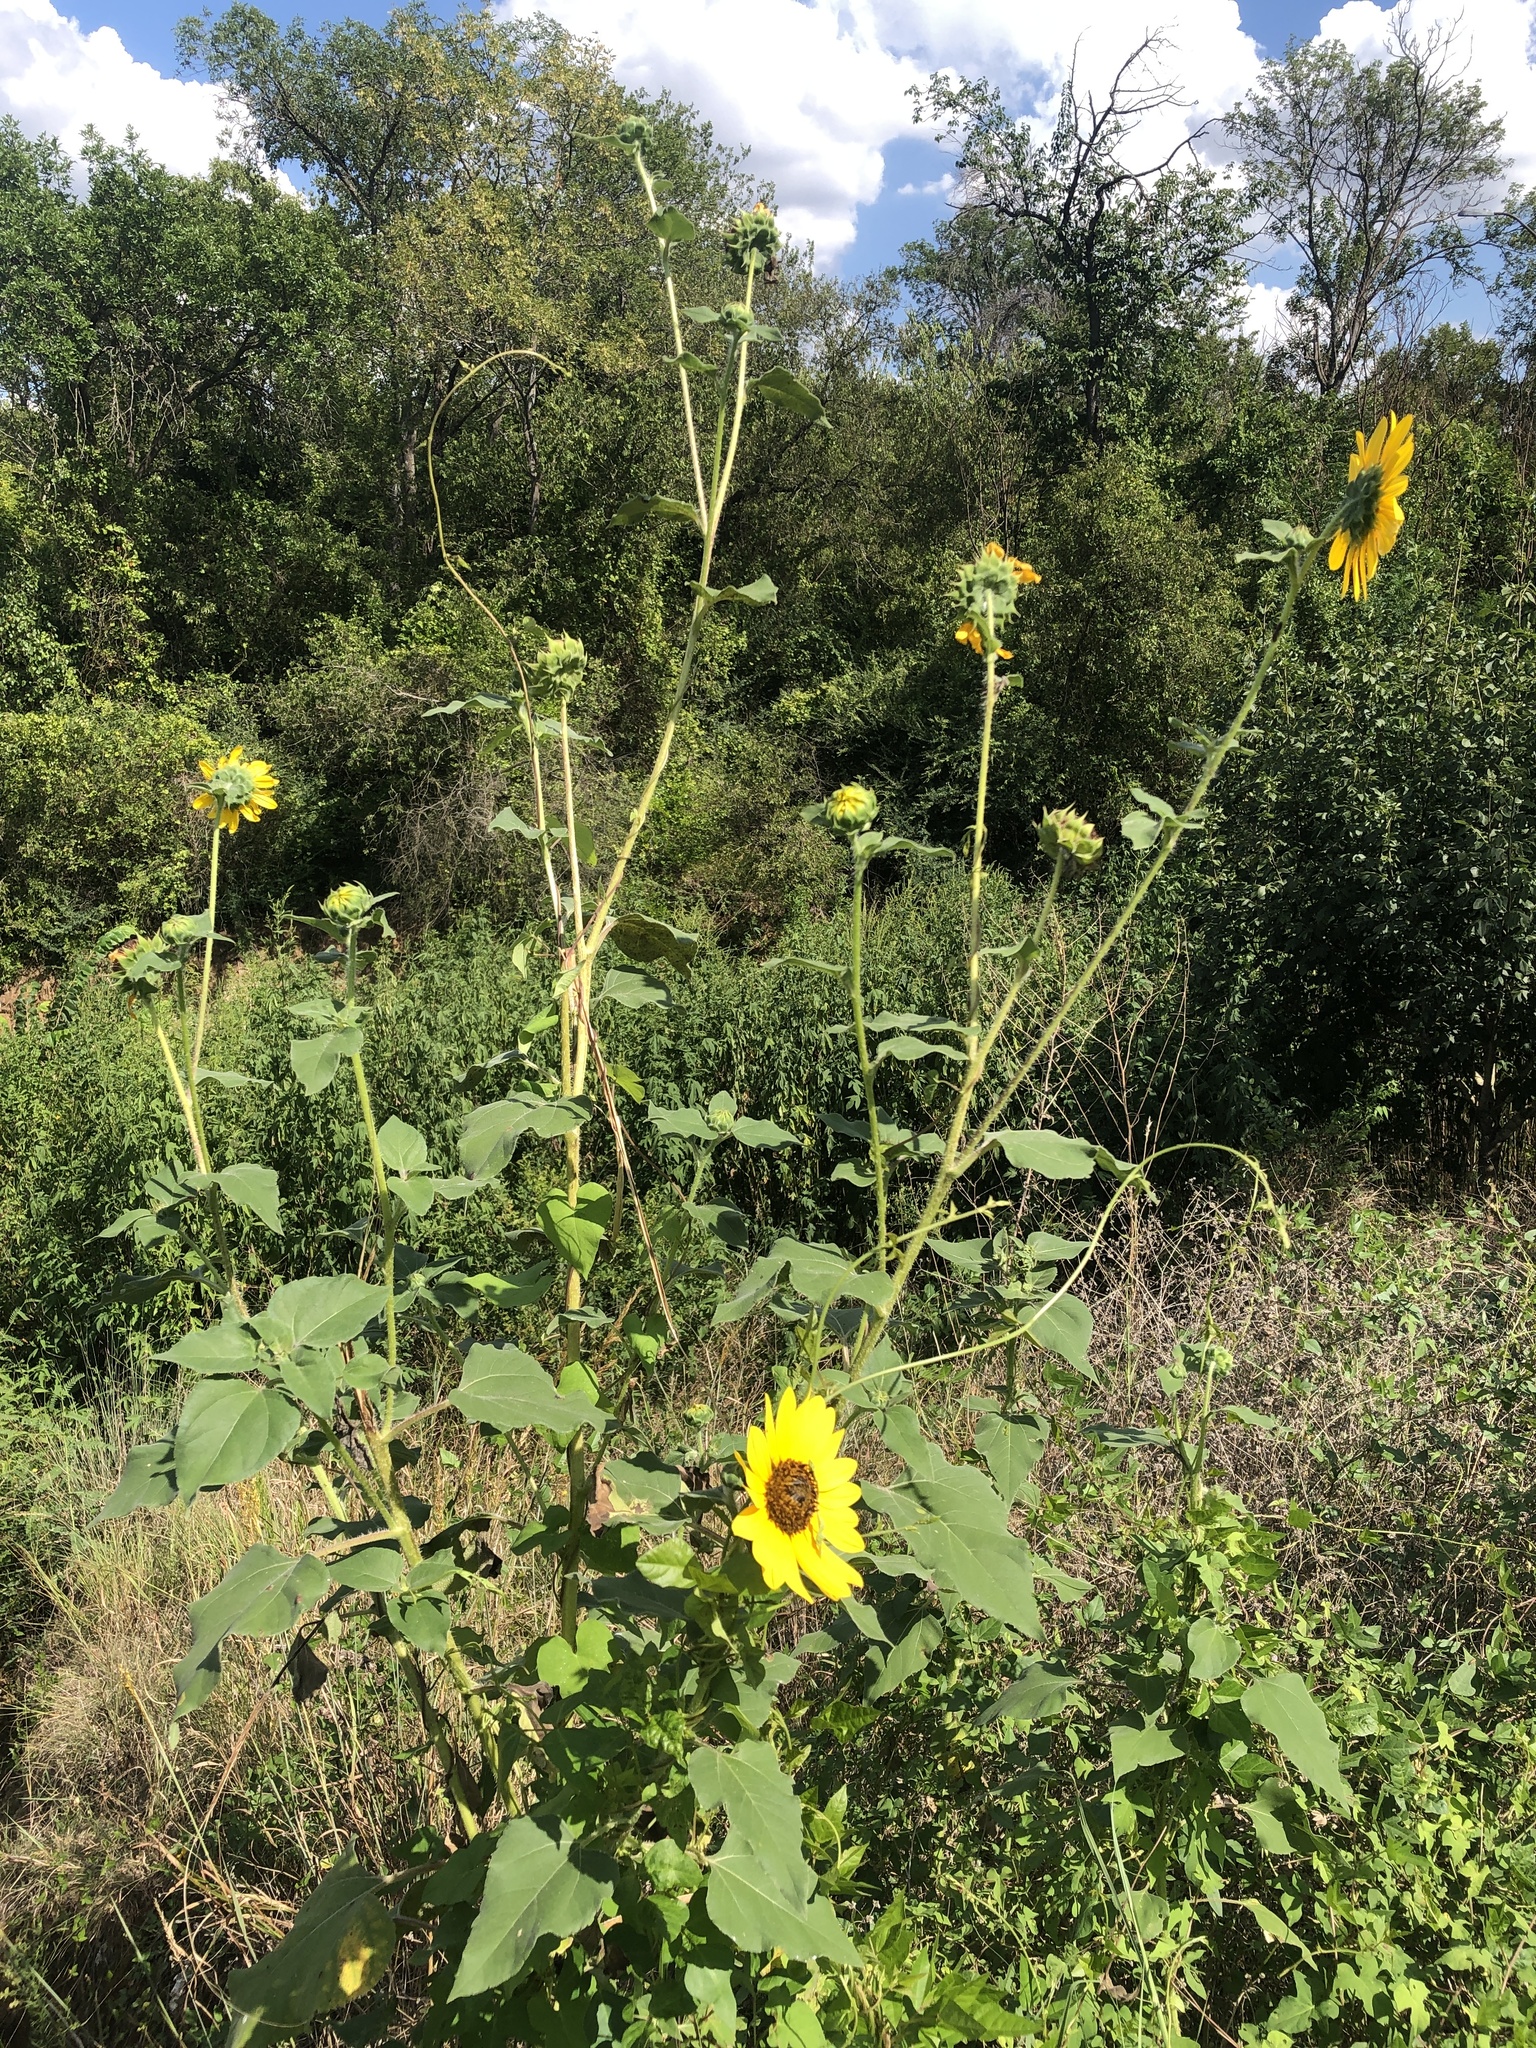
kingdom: Plantae
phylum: Tracheophyta
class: Magnoliopsida
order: Asterales
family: Asteraceae
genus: Helianthus
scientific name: Helianthus annuus
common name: Sunflower
